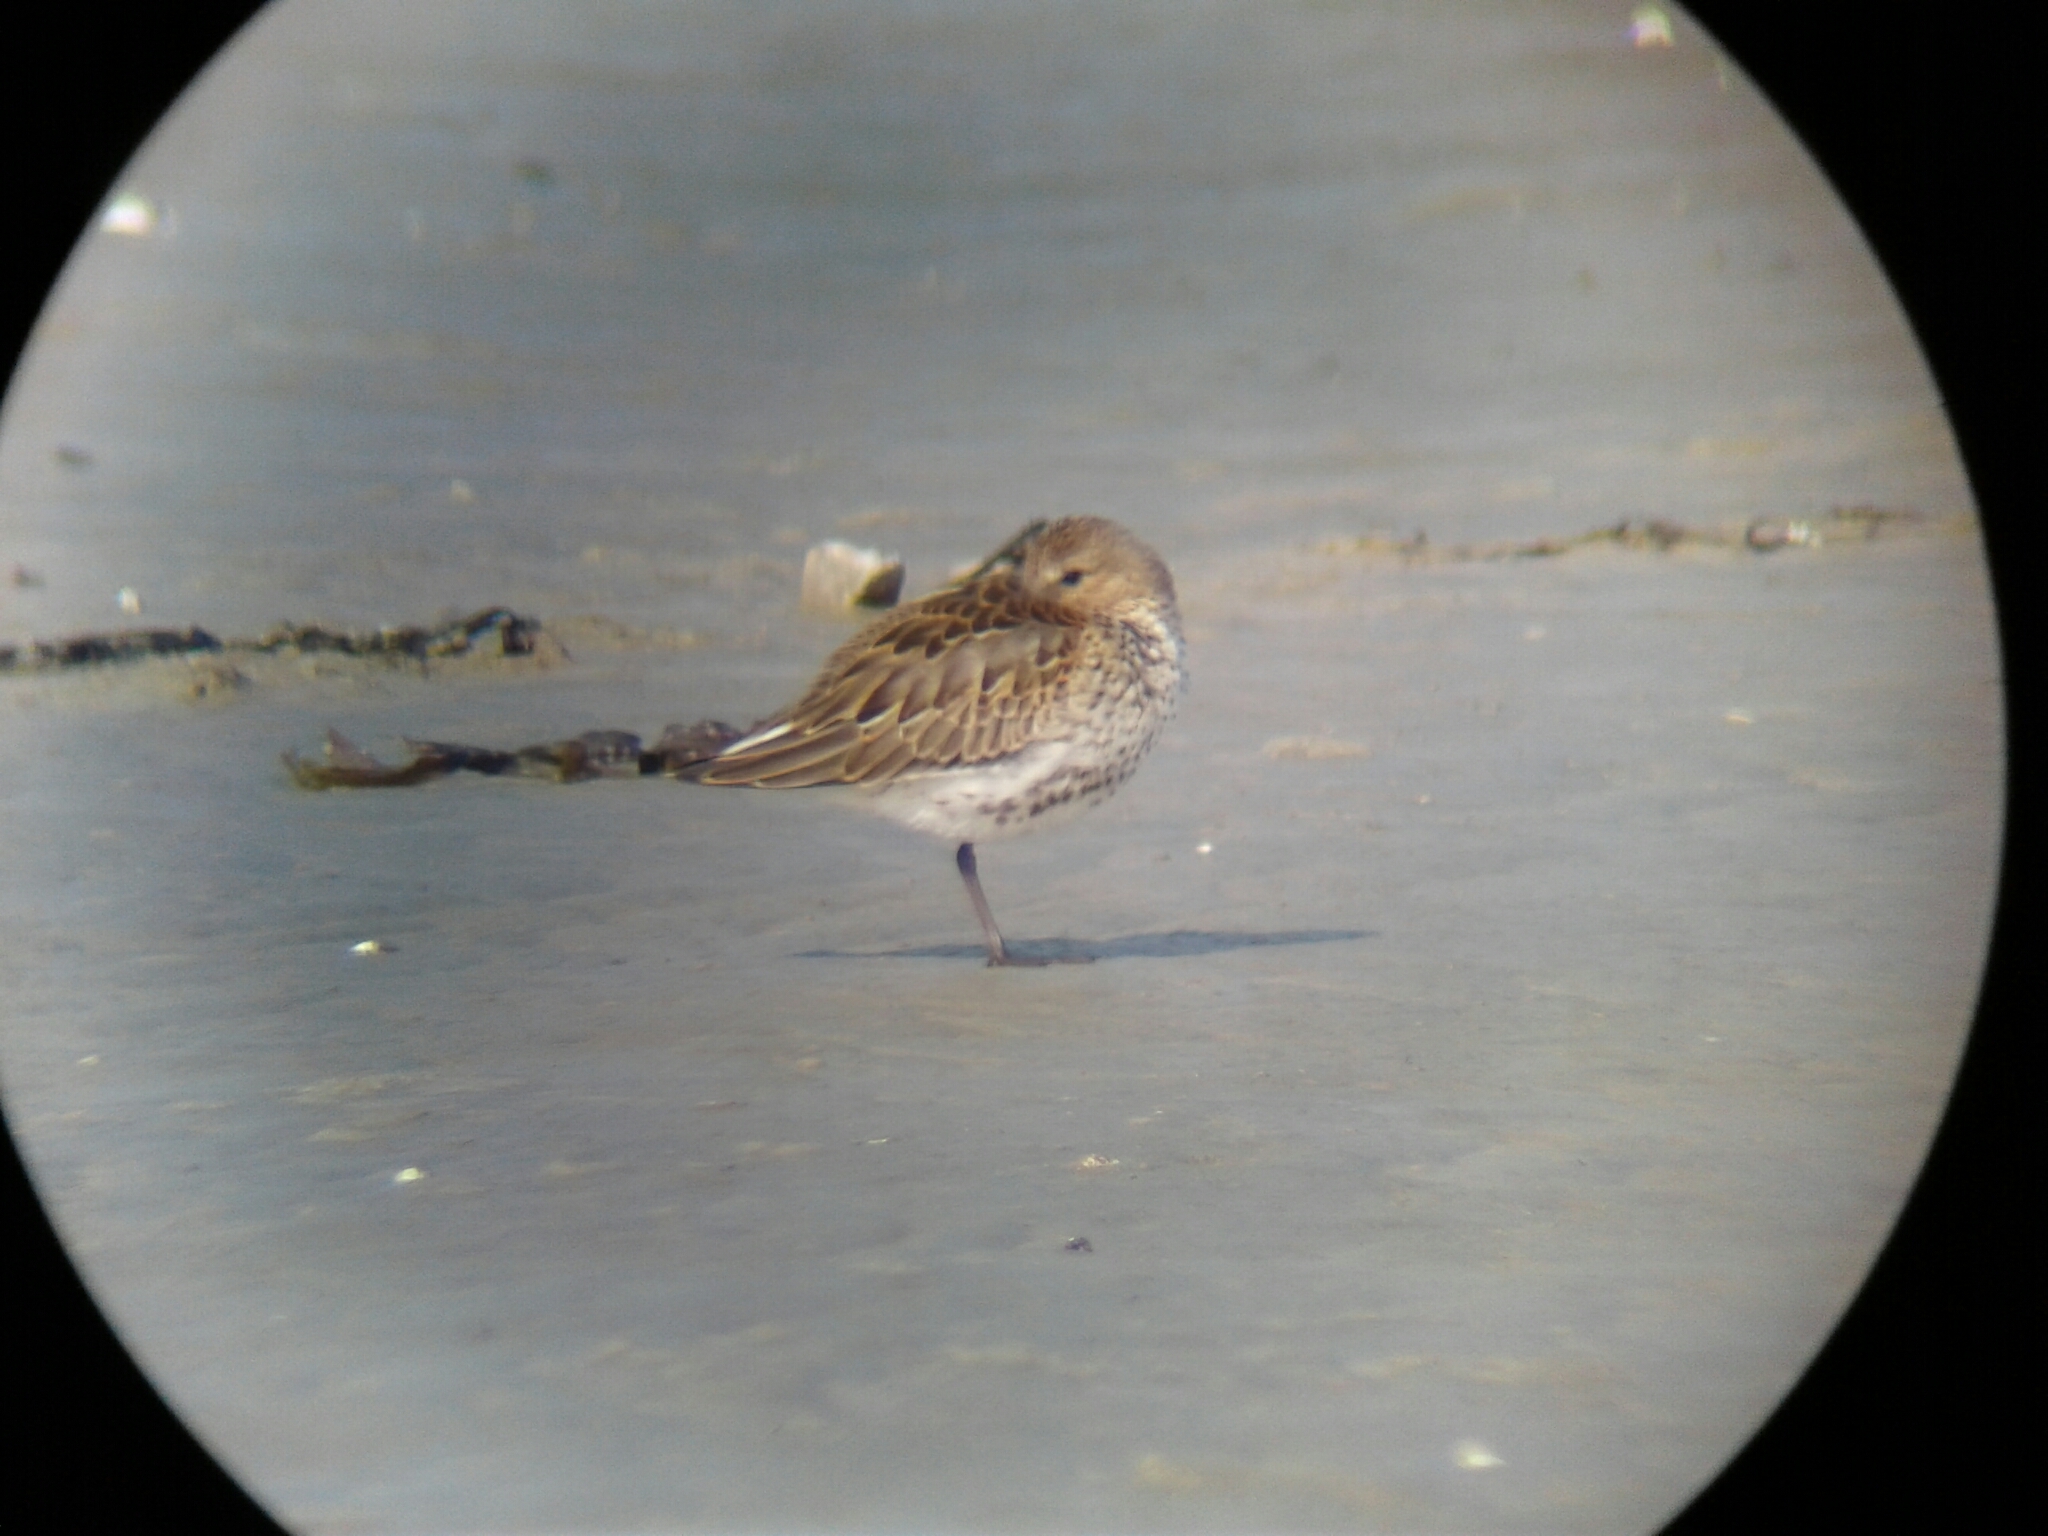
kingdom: Animalia
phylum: Chordata
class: Aves
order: Charadriiformes
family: Scolopacidae
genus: Calidris
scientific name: Calidris alpina
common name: Dunlin
